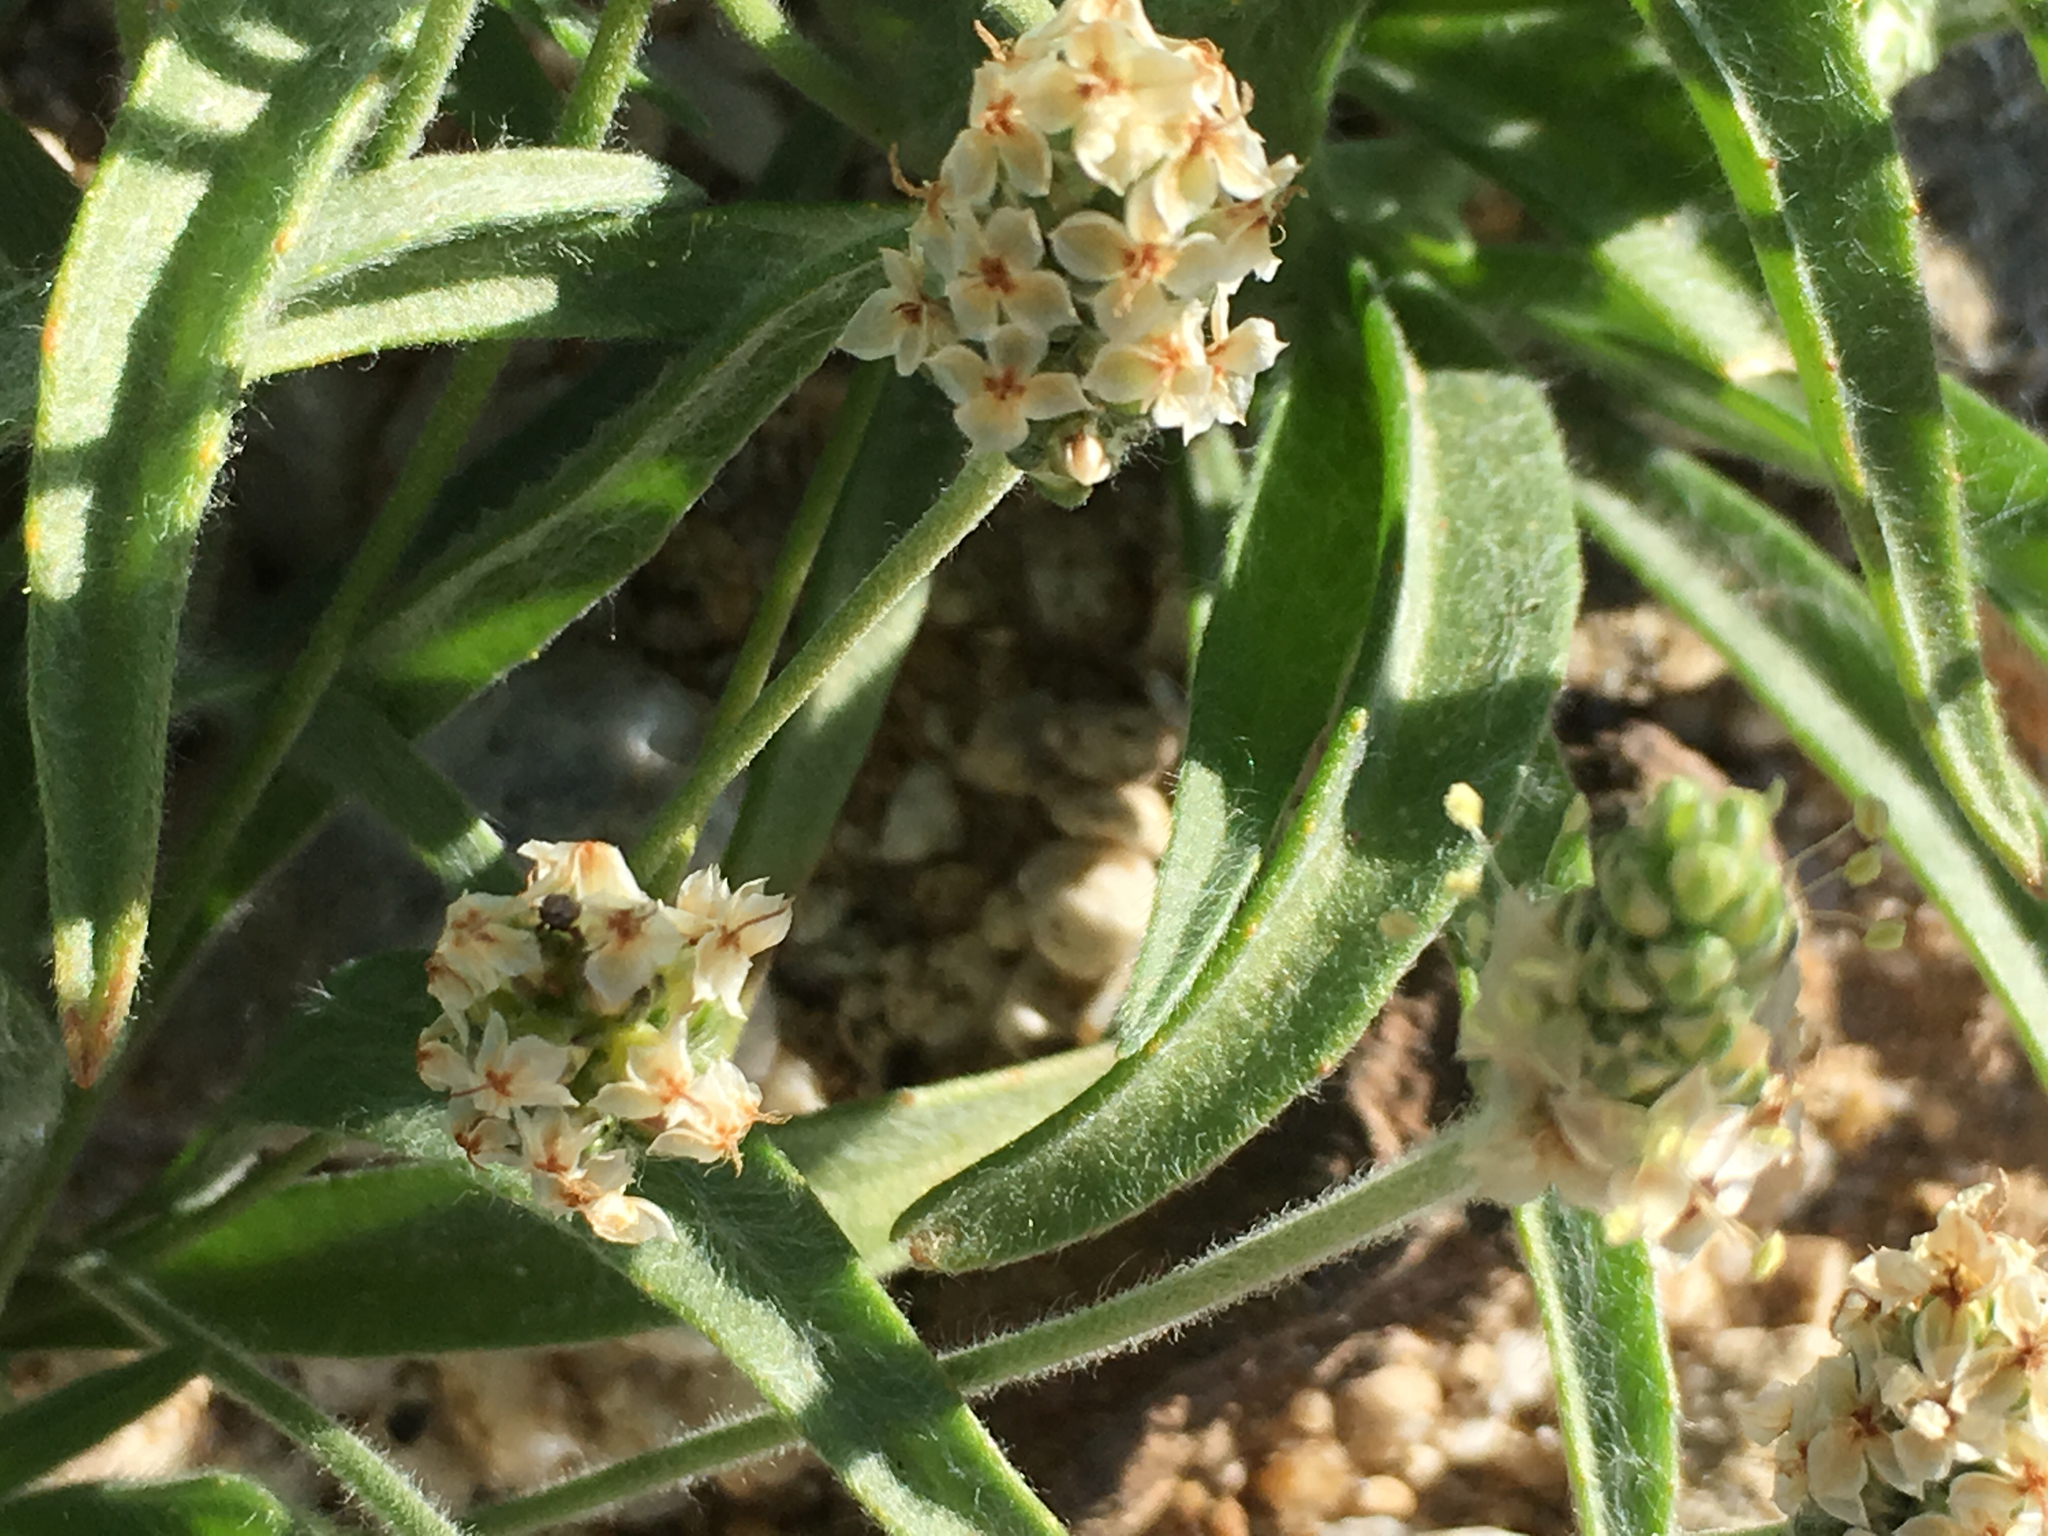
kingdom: Plantae
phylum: Tracheophyta
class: Magnoliopsida
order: Lamiales
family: Plantaginaceae
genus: Plantago
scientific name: Plantago ovata
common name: Blond plantain
